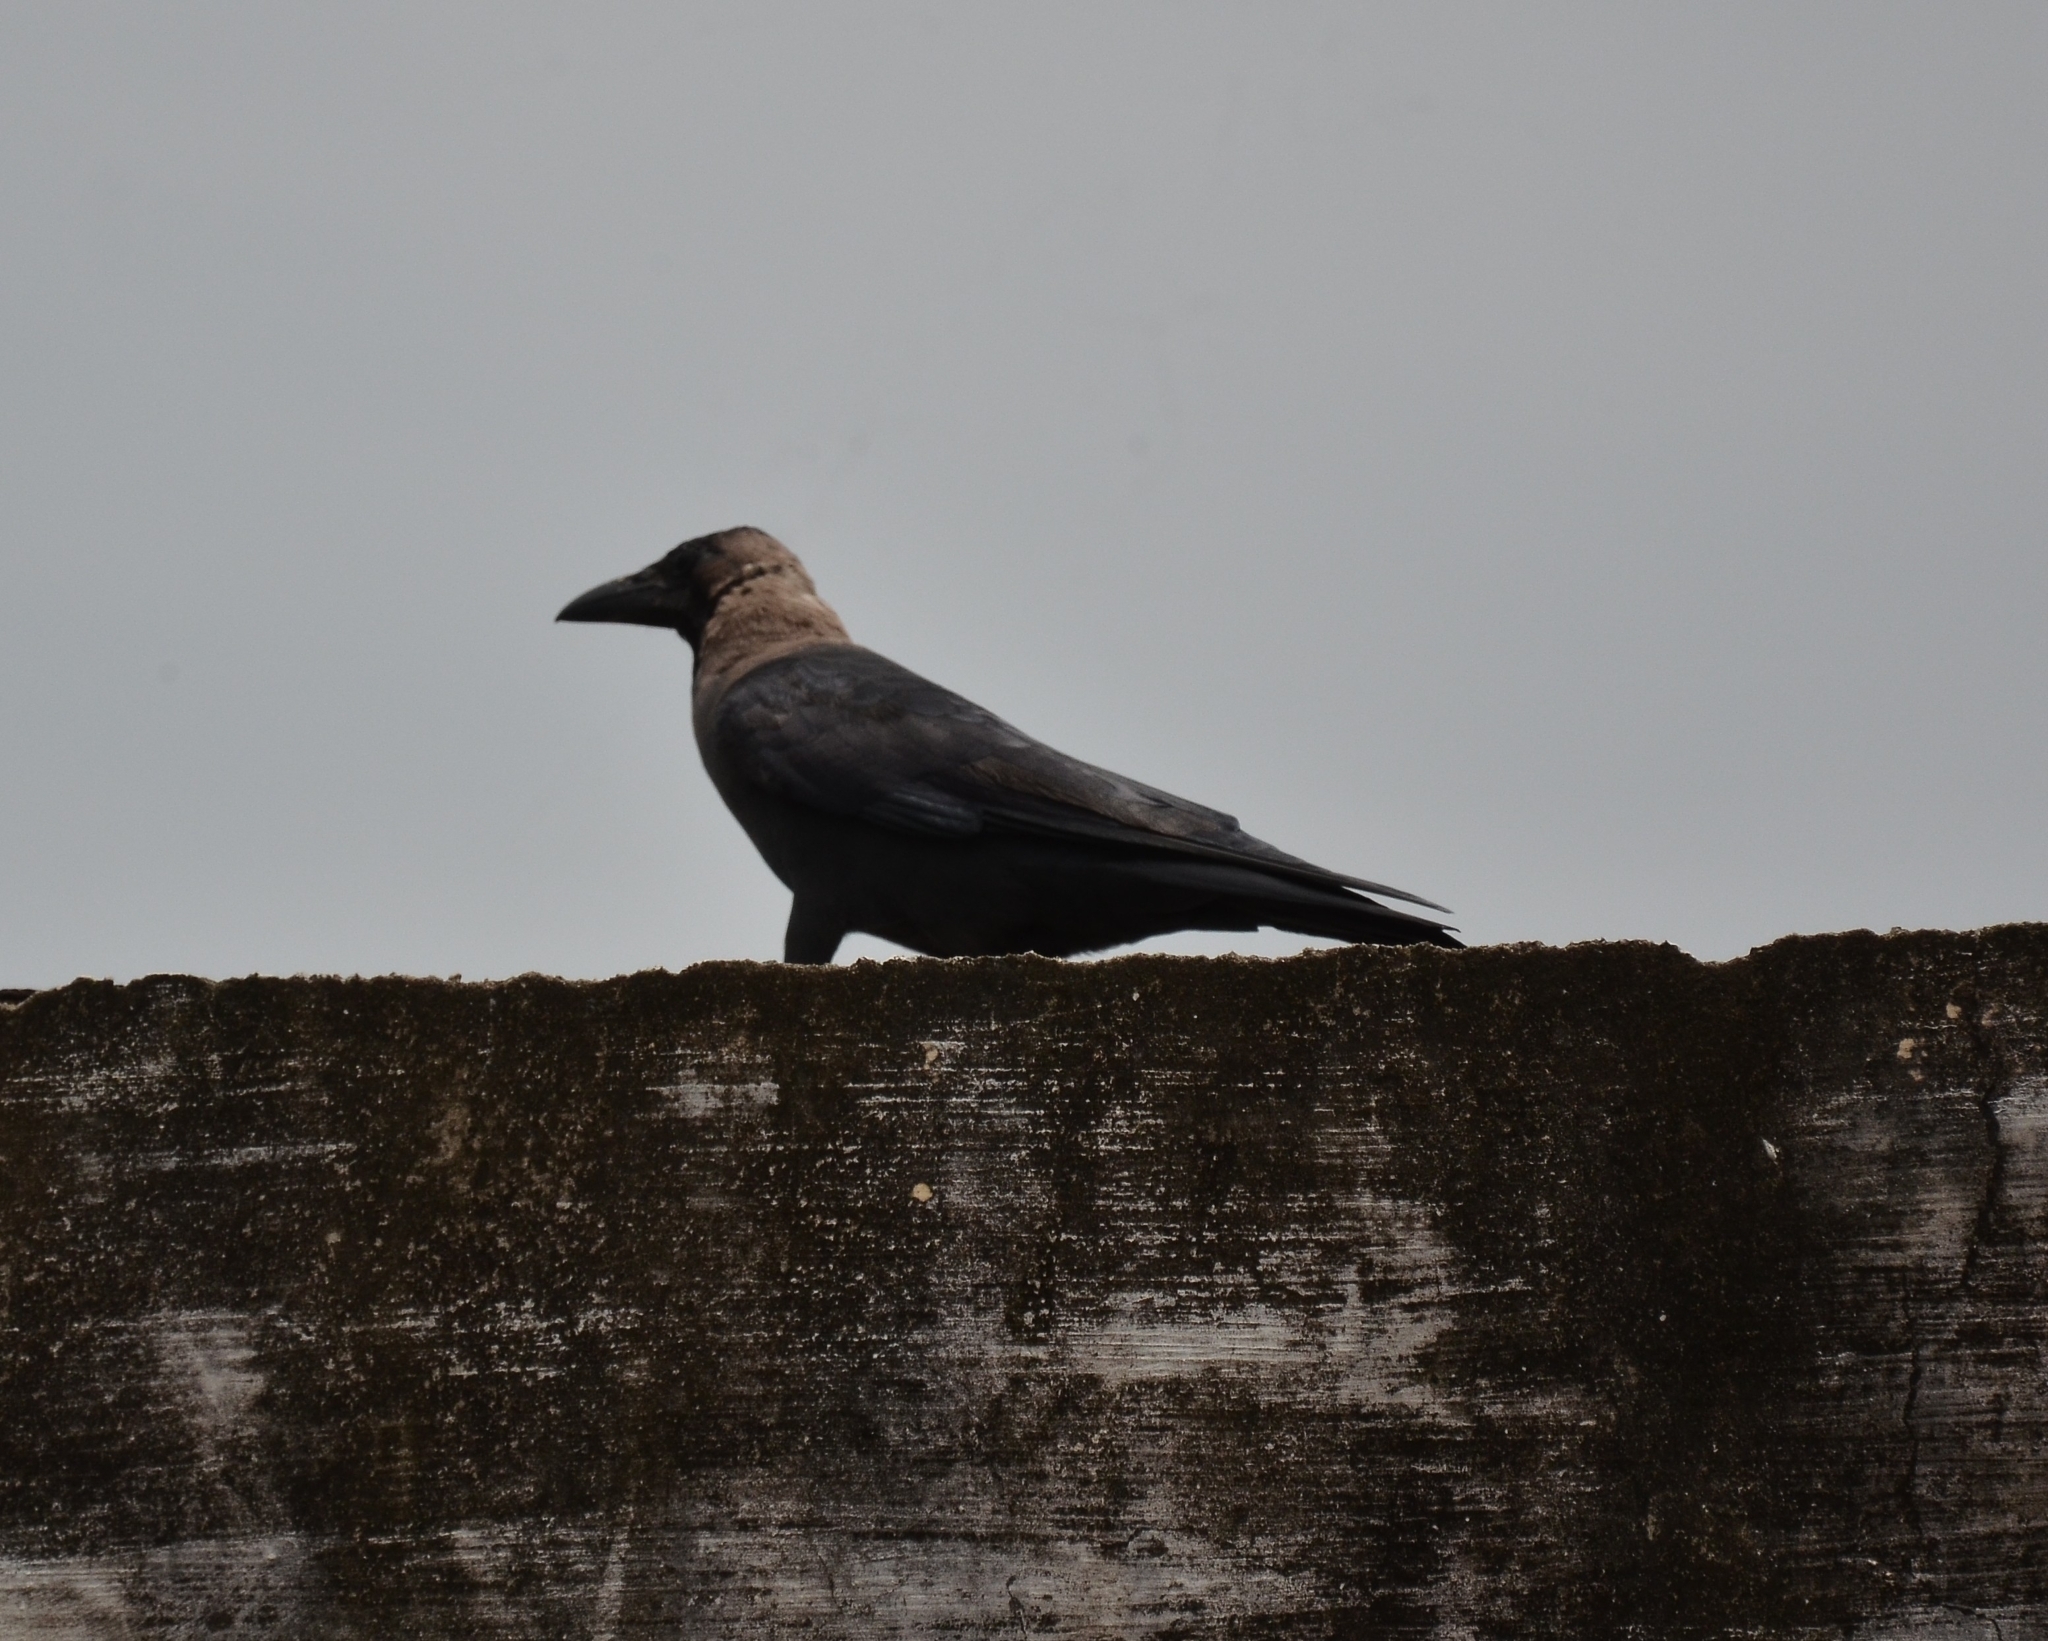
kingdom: Animalia
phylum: Chordata
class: Aves
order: Passeriformes
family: Corvidae
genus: Corvus
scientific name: Corvus splendens
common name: House crow
